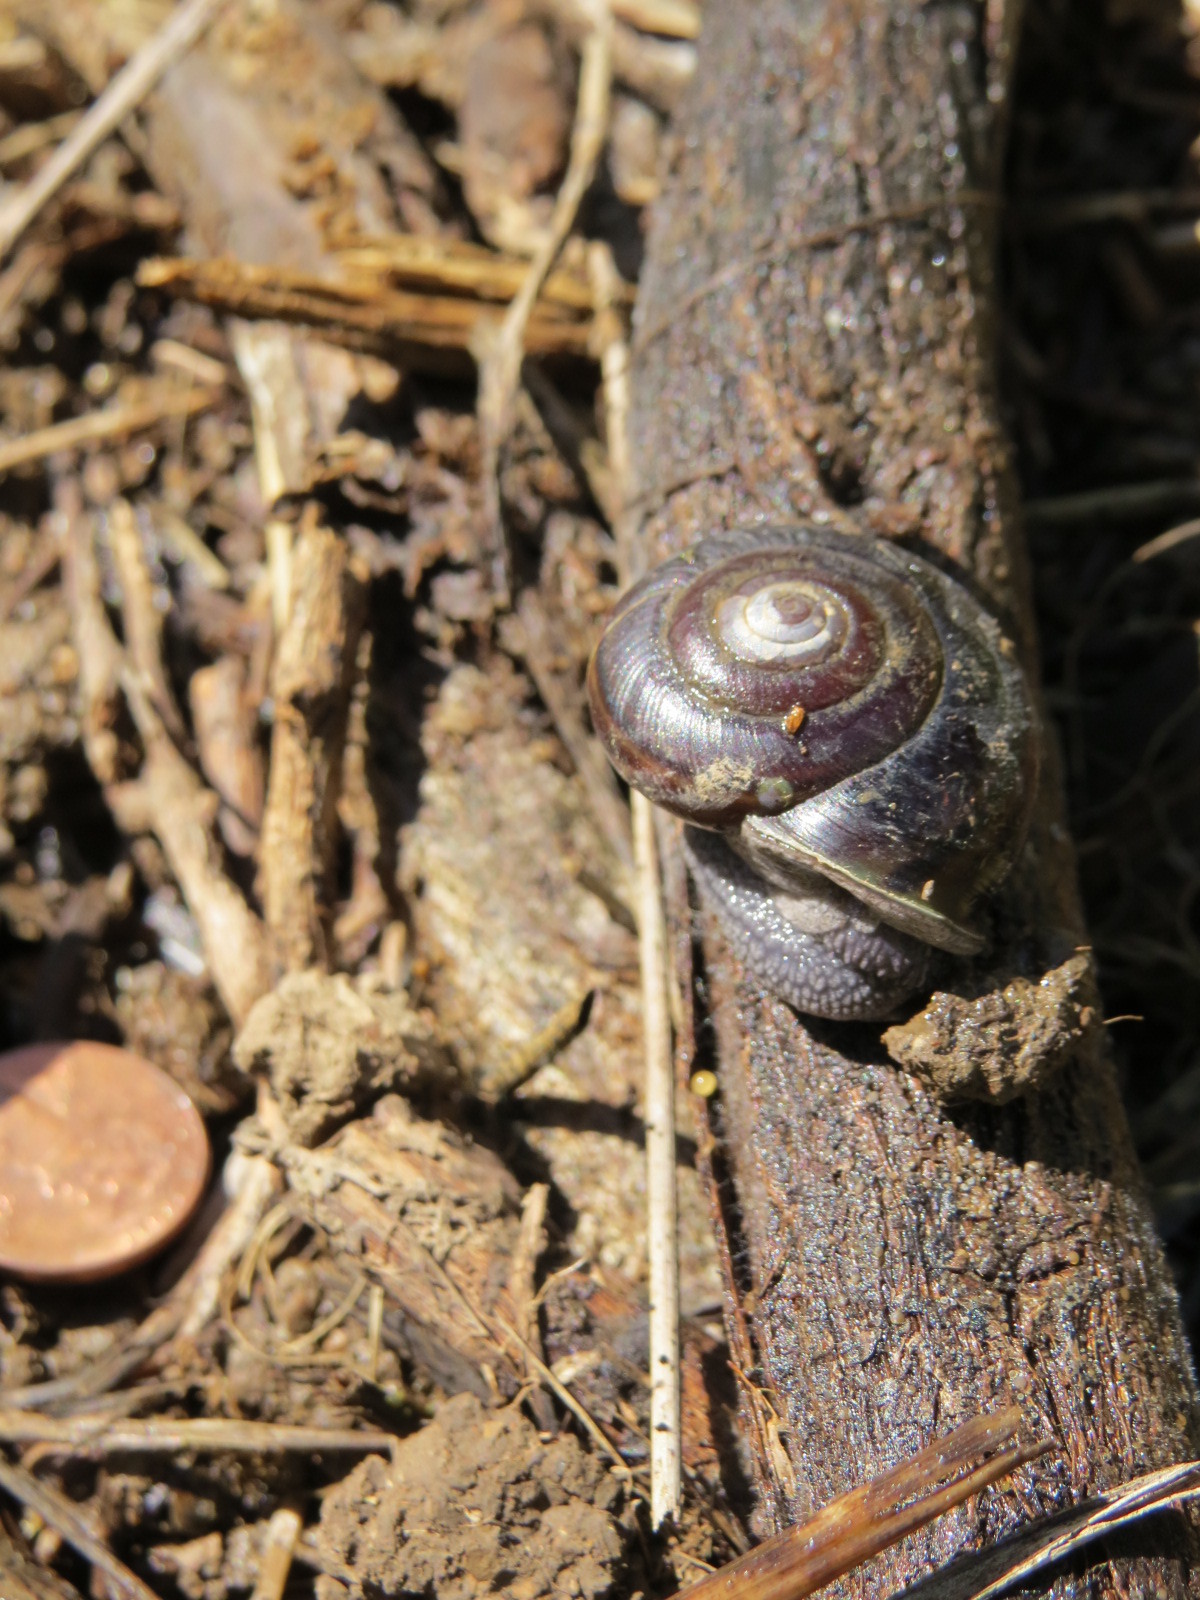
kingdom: Animalia
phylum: Mollusca
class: Gastropoda
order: Stylommatophora
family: Xanthonychidae
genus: Helminthoglypta
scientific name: Helminthoglypta sequoicola
